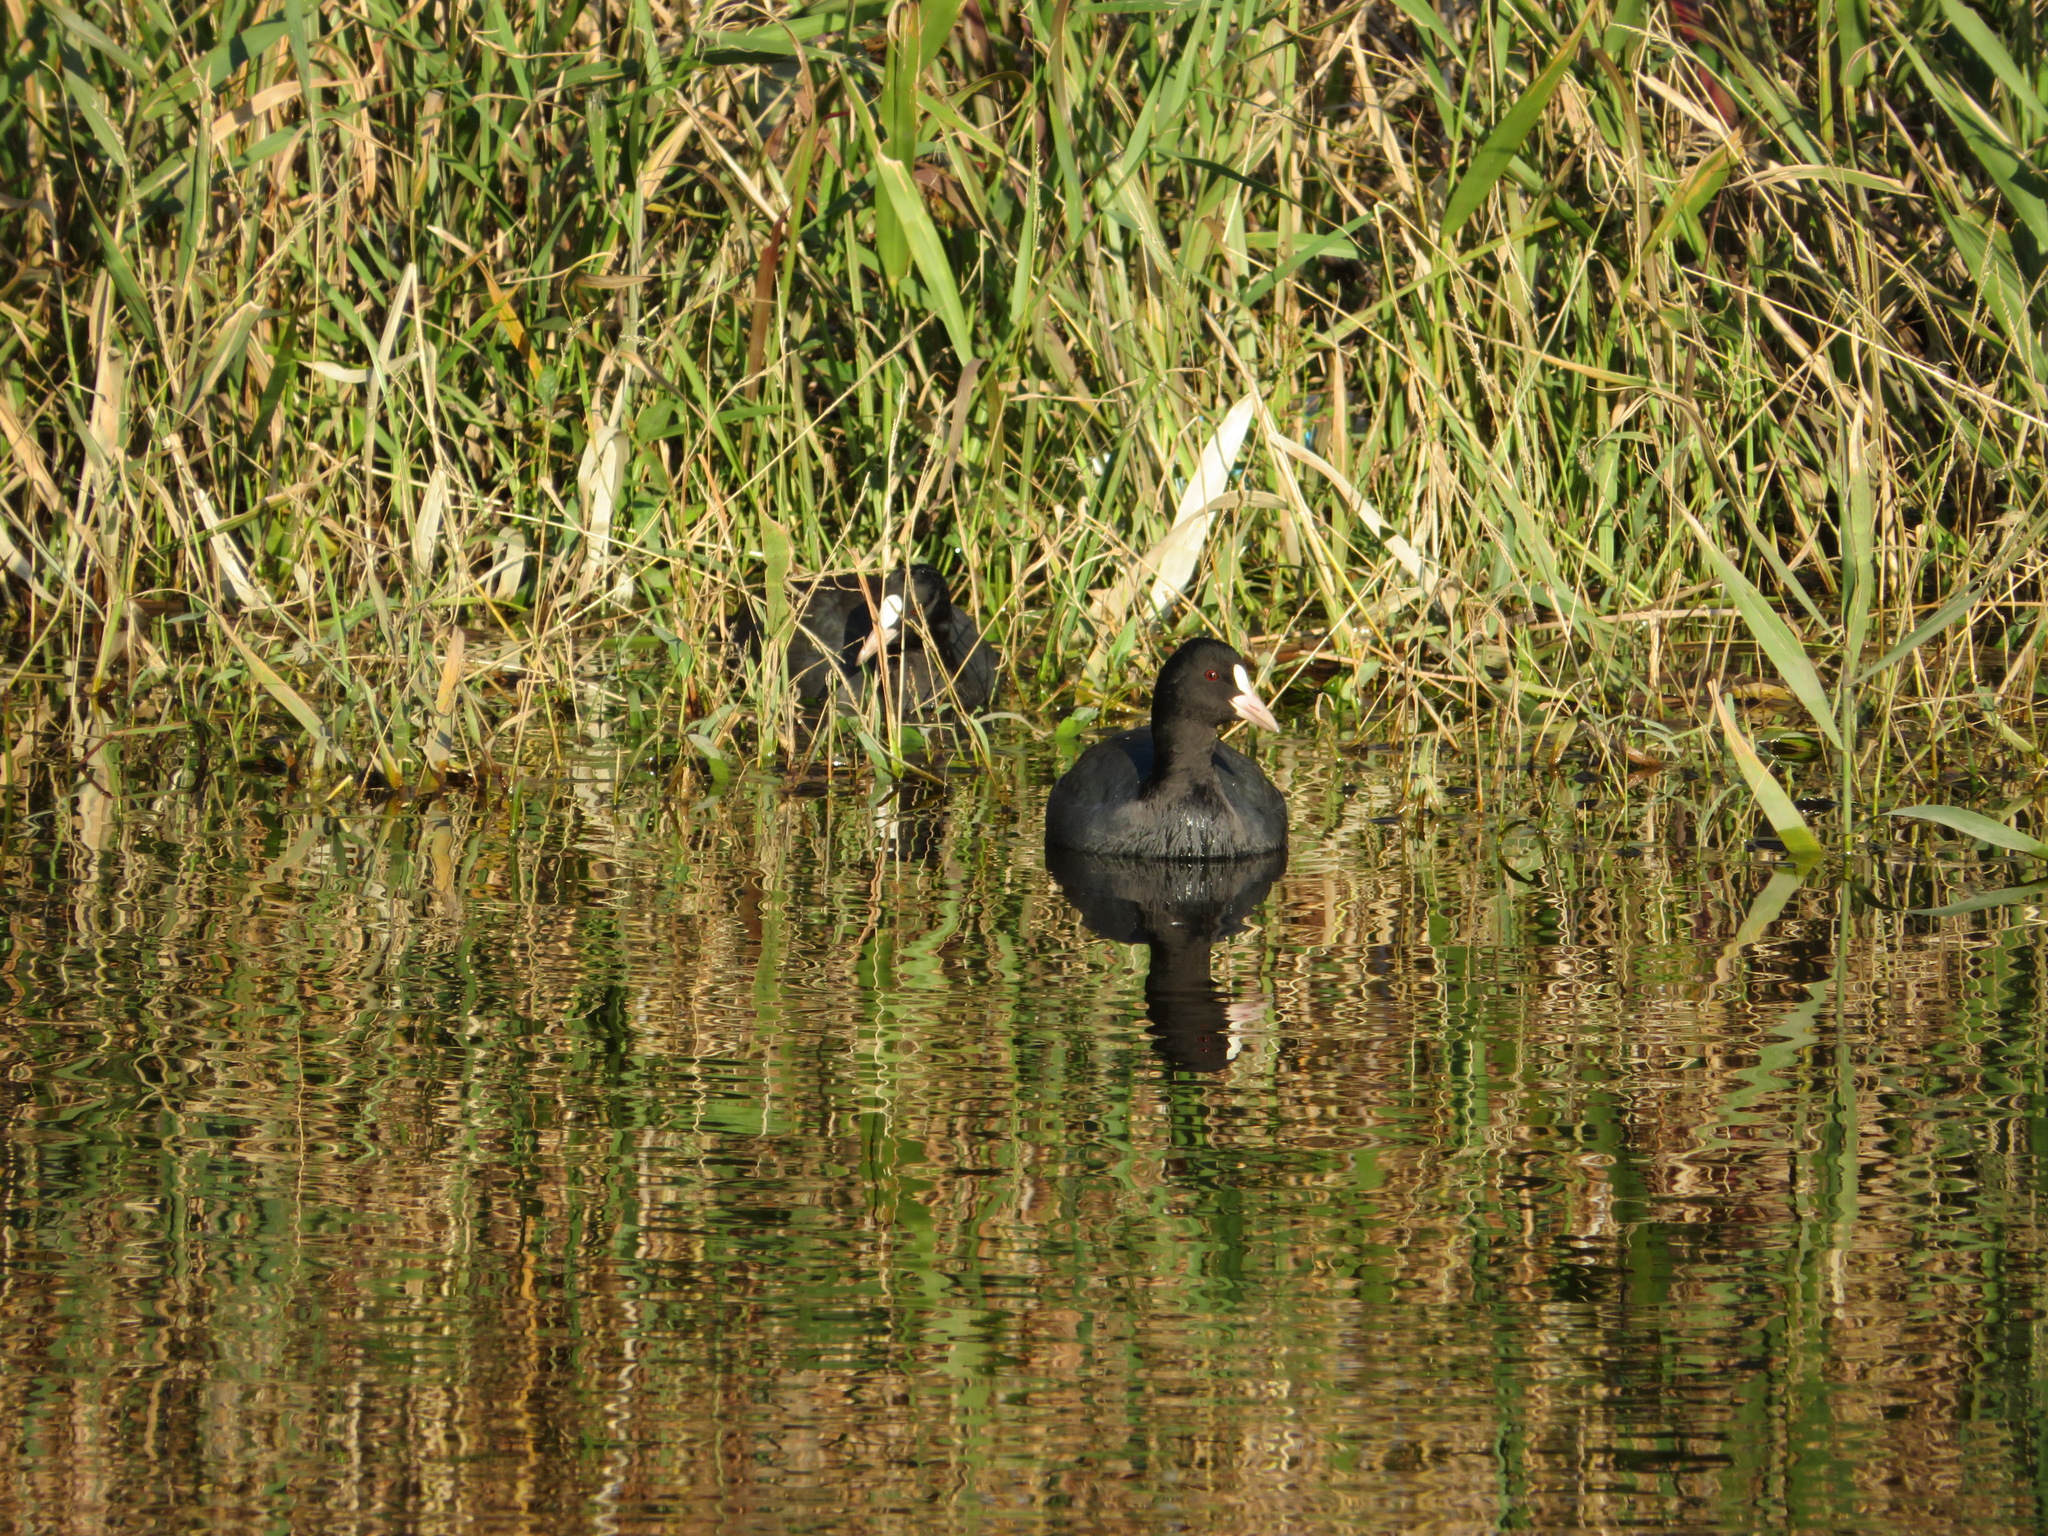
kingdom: Animalia
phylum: Chordata
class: Aves
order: Gruiformes
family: Rallidae
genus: Fulica
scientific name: Fulica atra
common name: Eurasian coot
